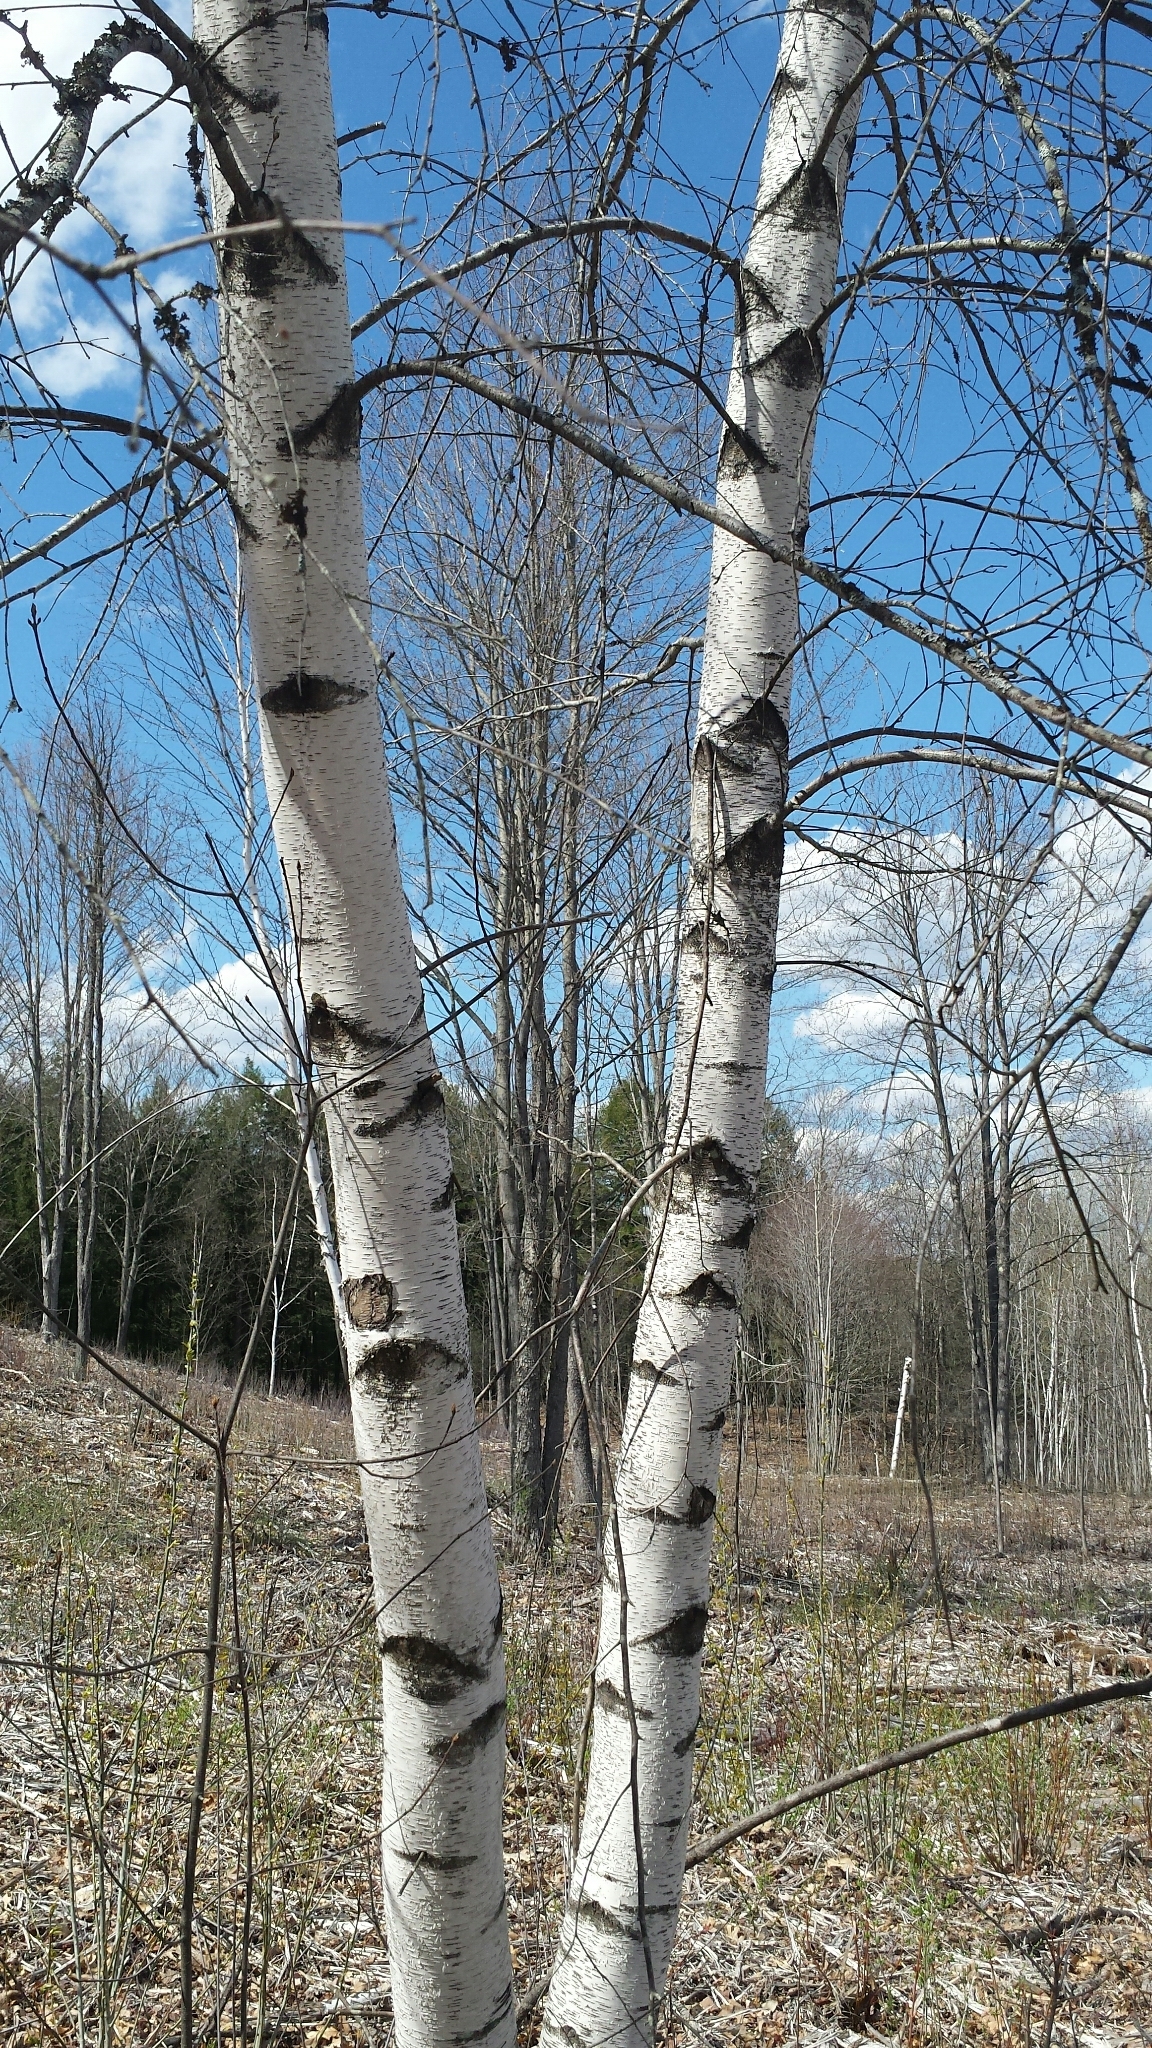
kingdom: Plantae
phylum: Tracheophyta
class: Magnoliopsida
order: Fagales
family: Betulaceae
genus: Betula
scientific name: Betula populifolia
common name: Fire birch
